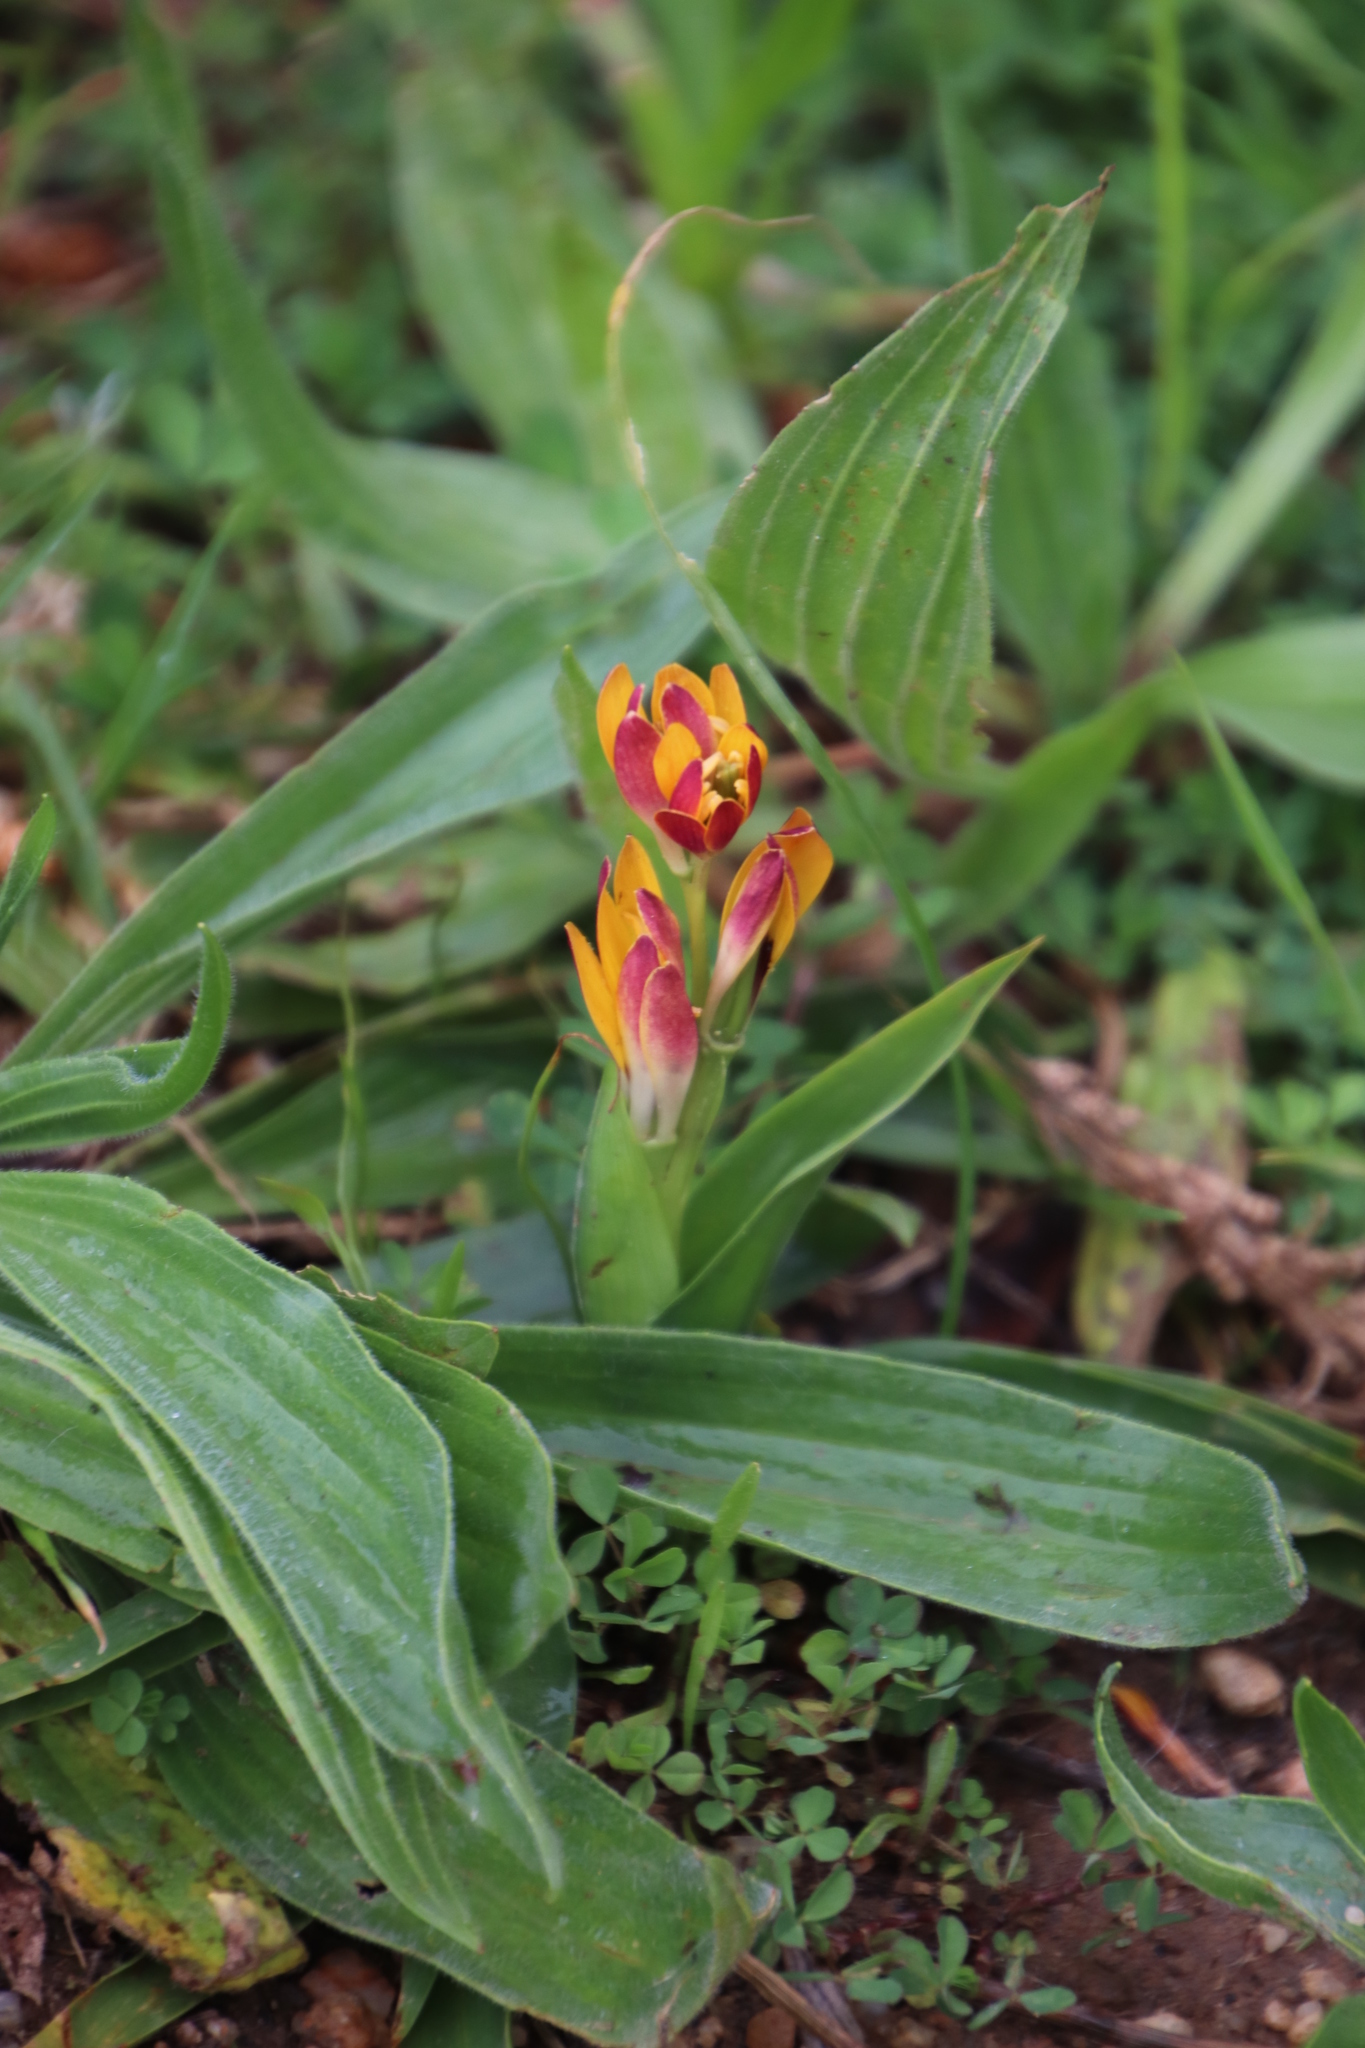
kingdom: Plantae
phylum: Tracheophyta
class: Liliopsida
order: Liliales
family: Colchicaceae
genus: Baeometra
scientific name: Baeometra uniflora
